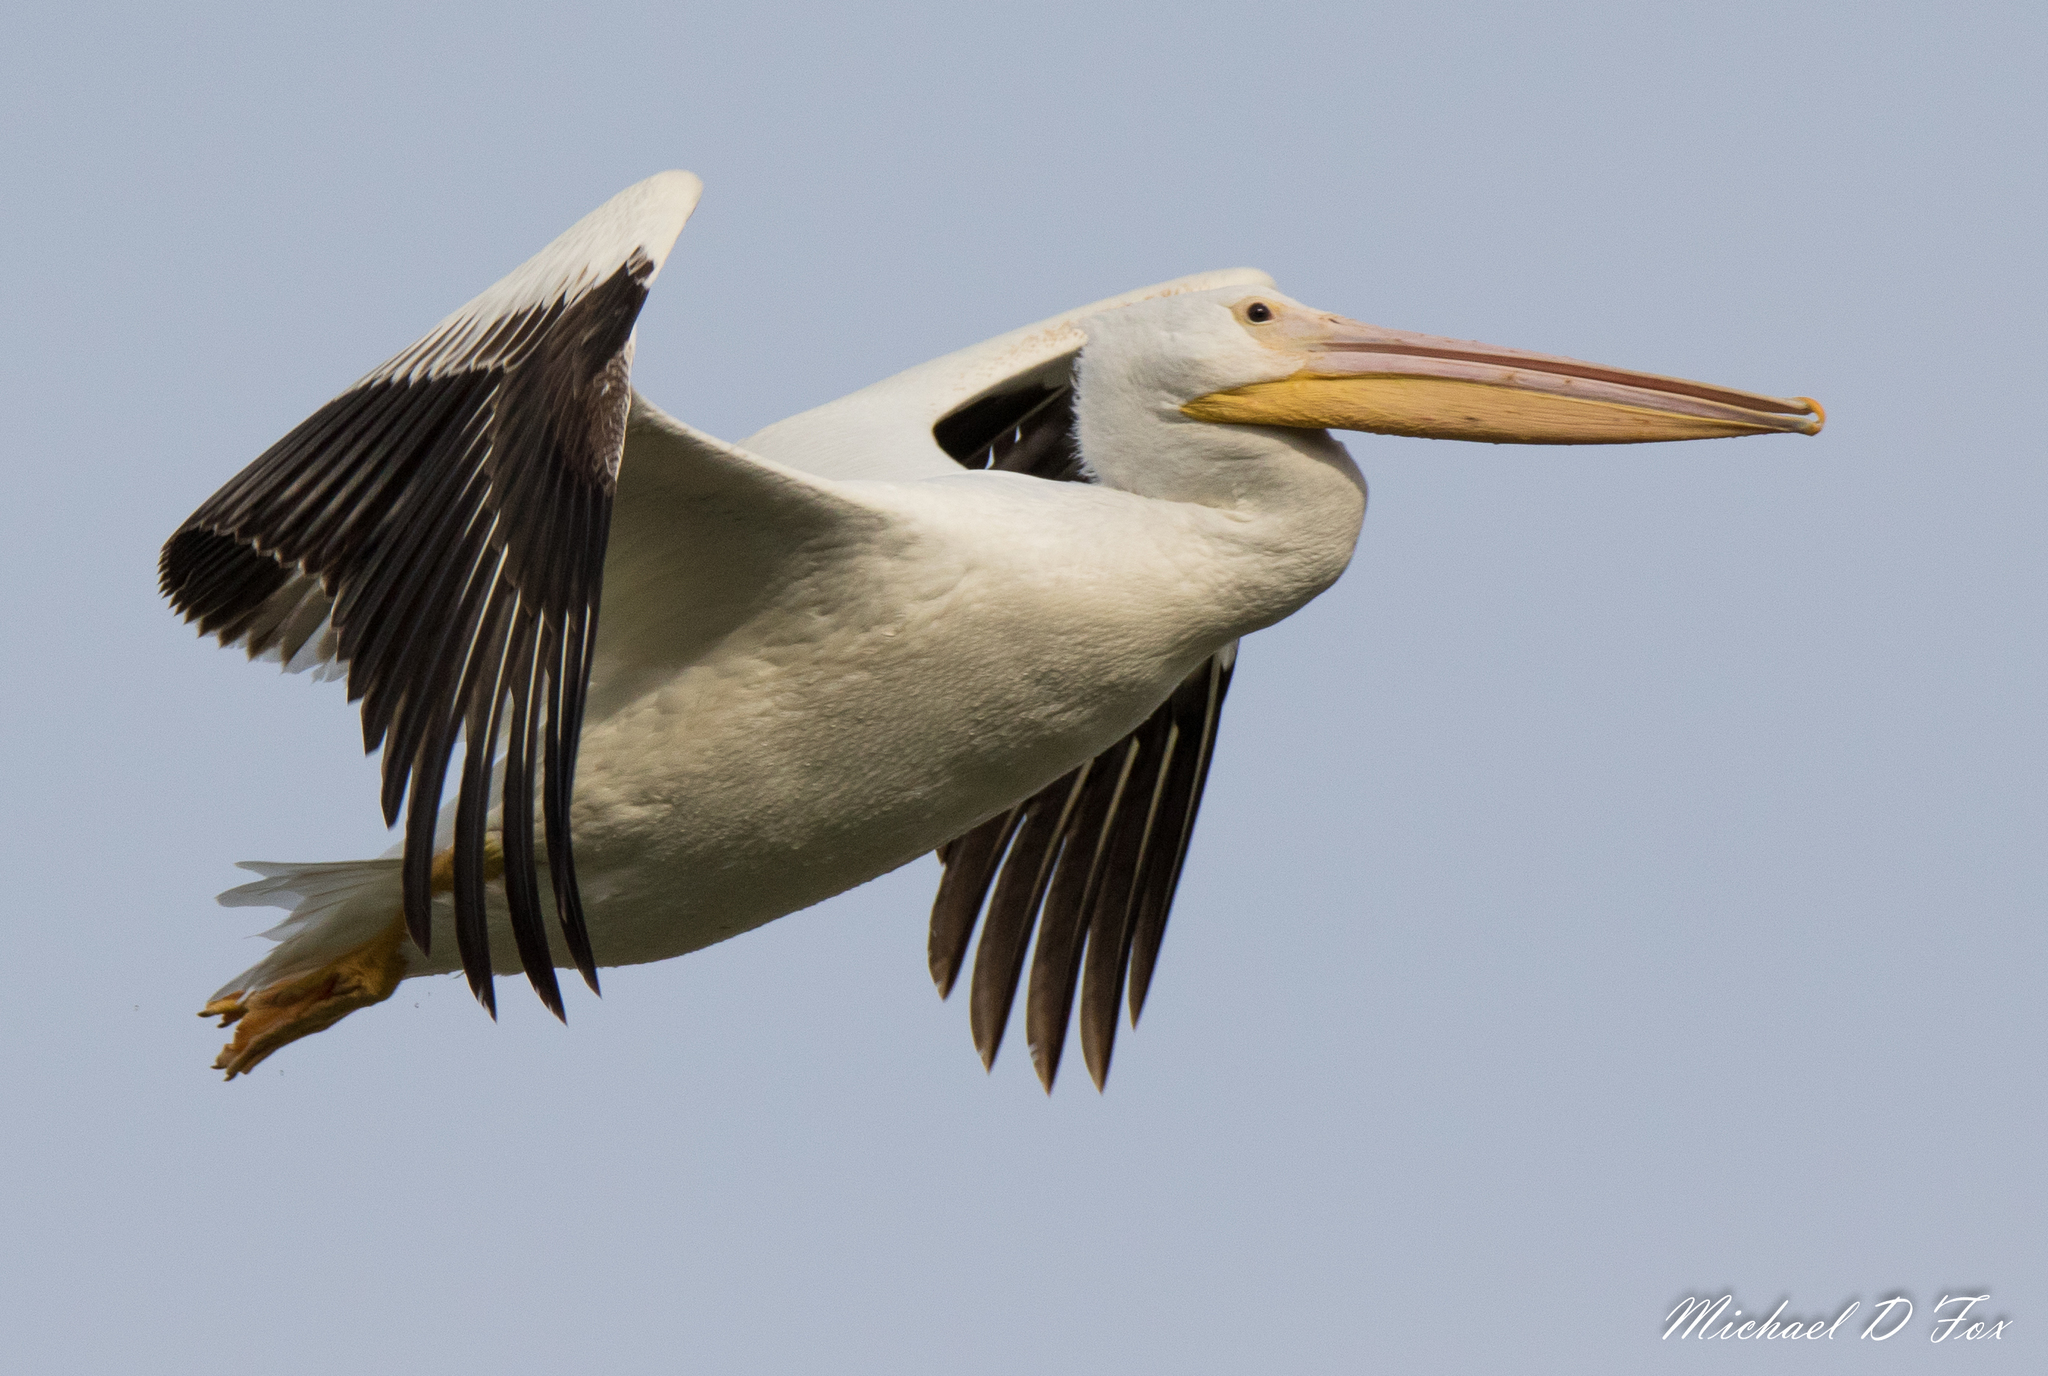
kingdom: Animalia
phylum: Chordata
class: Aves
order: Pelecaniformes
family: Pelecanidae
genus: Pelecanus
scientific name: Pelecanus erythrorhynchos
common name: American white pelican
